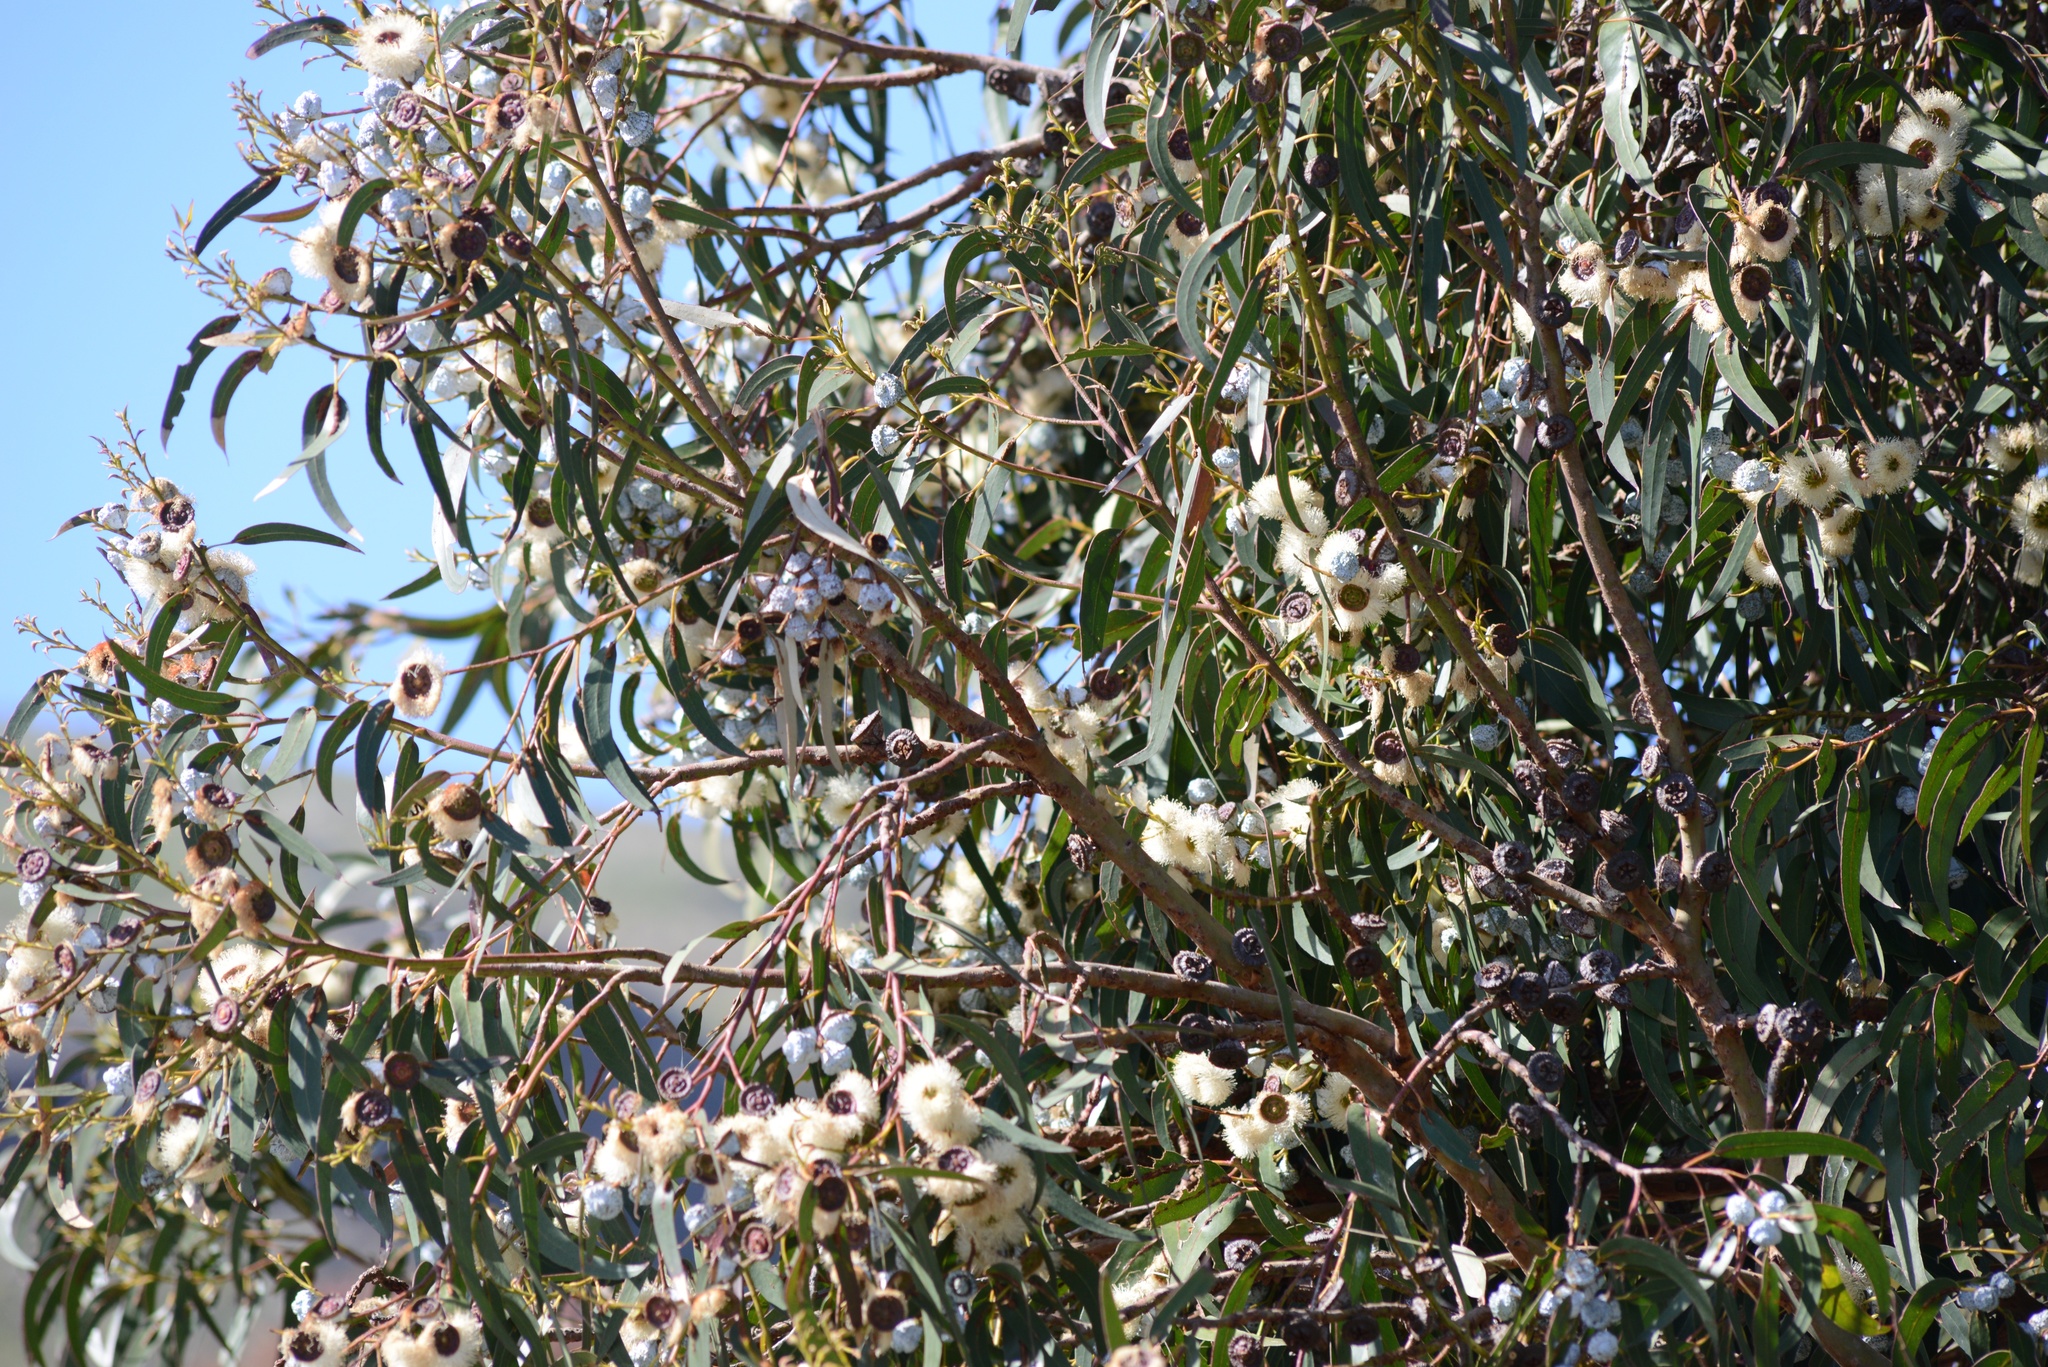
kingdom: Plantae
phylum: Tracheophyta
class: Magnoliopsida
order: Myrtales
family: Myrtaceae
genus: Eucalyptus
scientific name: Eucalyptus globulus
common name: Southern blue-gum
